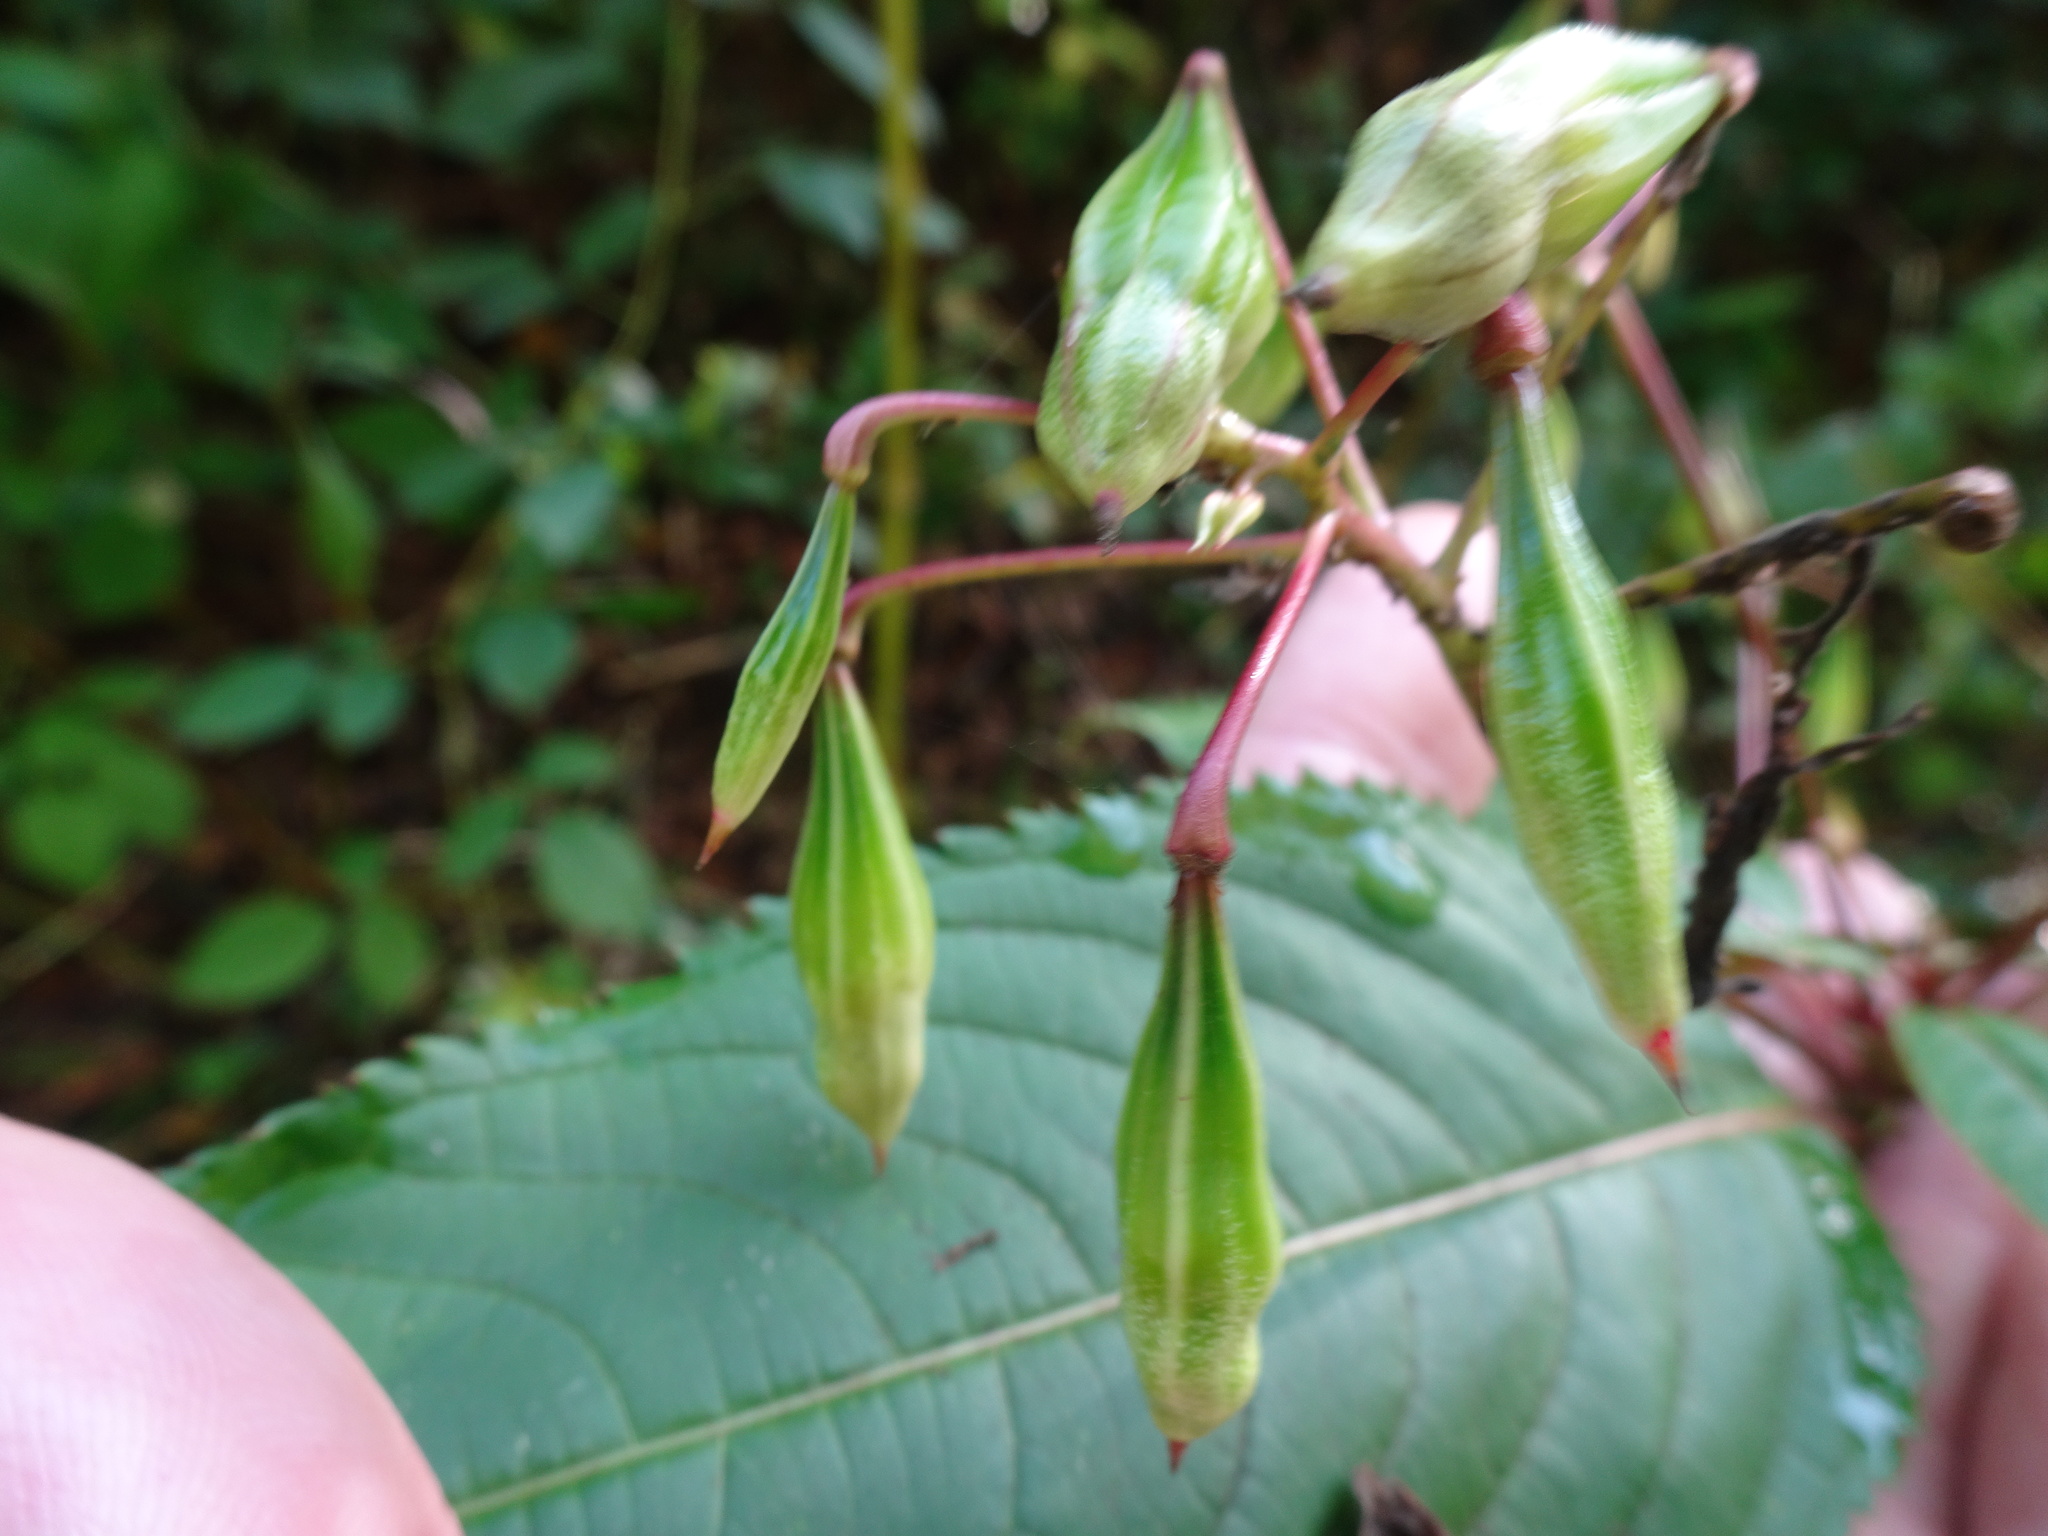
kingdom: Plantae
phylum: Tracheophyta
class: Magnoliopsida
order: Ericales
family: Balsaminaceae
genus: Impatiens
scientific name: Impatiens glandulifera
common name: Himalayan balsam
